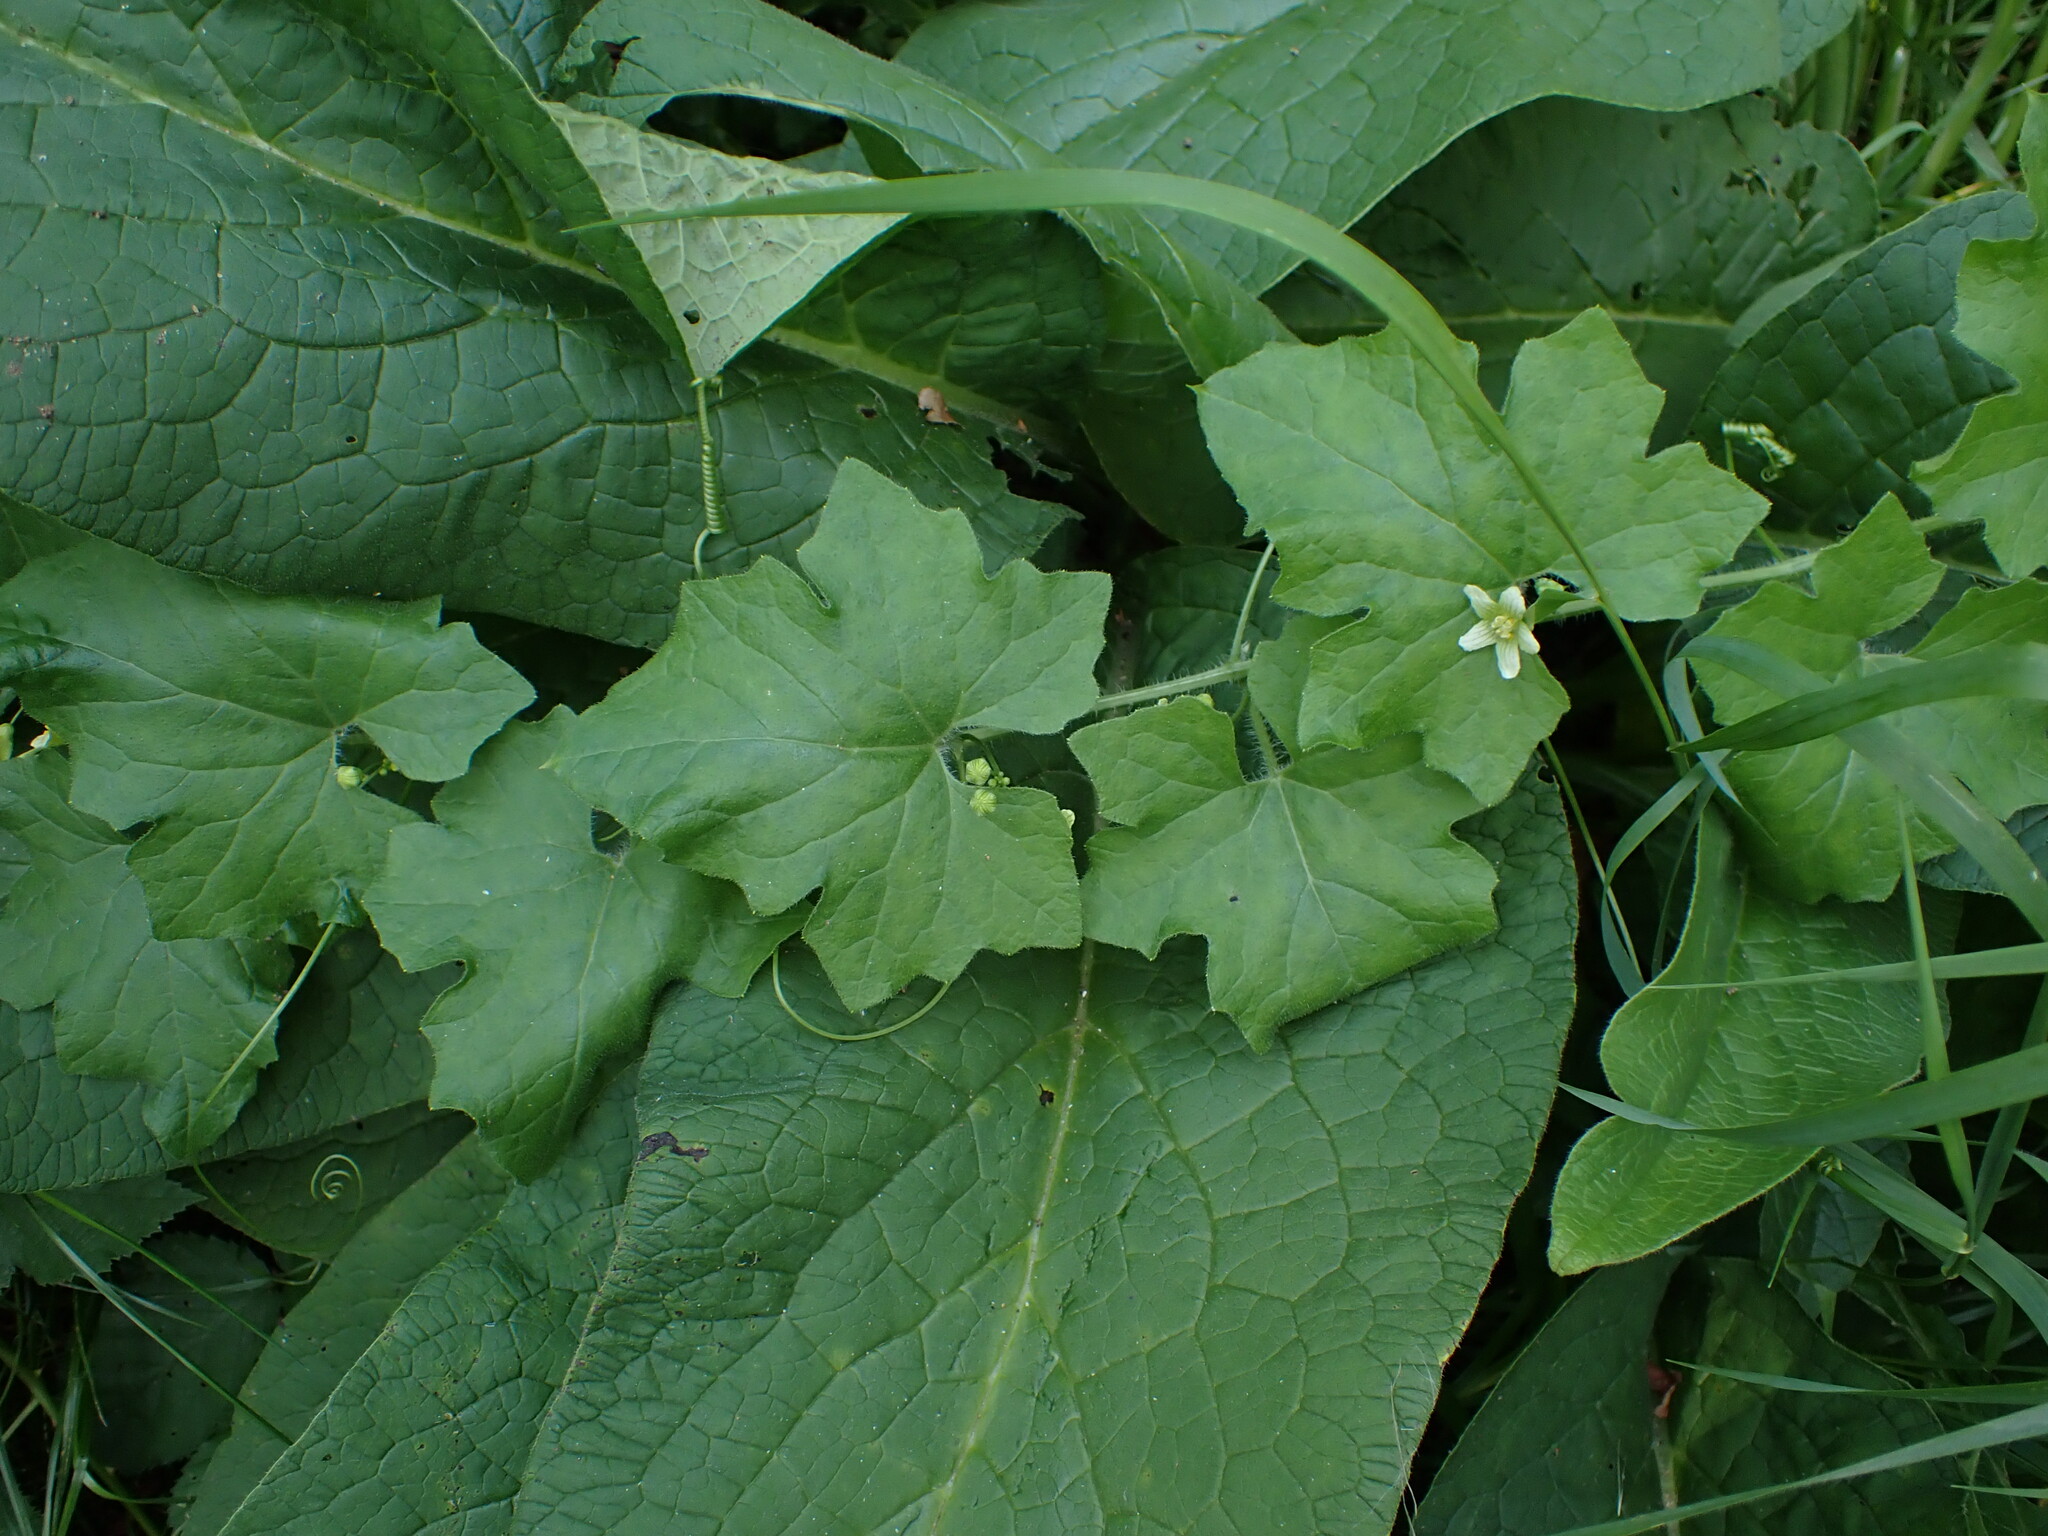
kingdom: Plantae
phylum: Tracheophyta
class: Magnoliopsida
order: Cucurbitales
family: Cucurbitaceae
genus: Bryonia
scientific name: Bryonia cretica
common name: Cretan bryony
